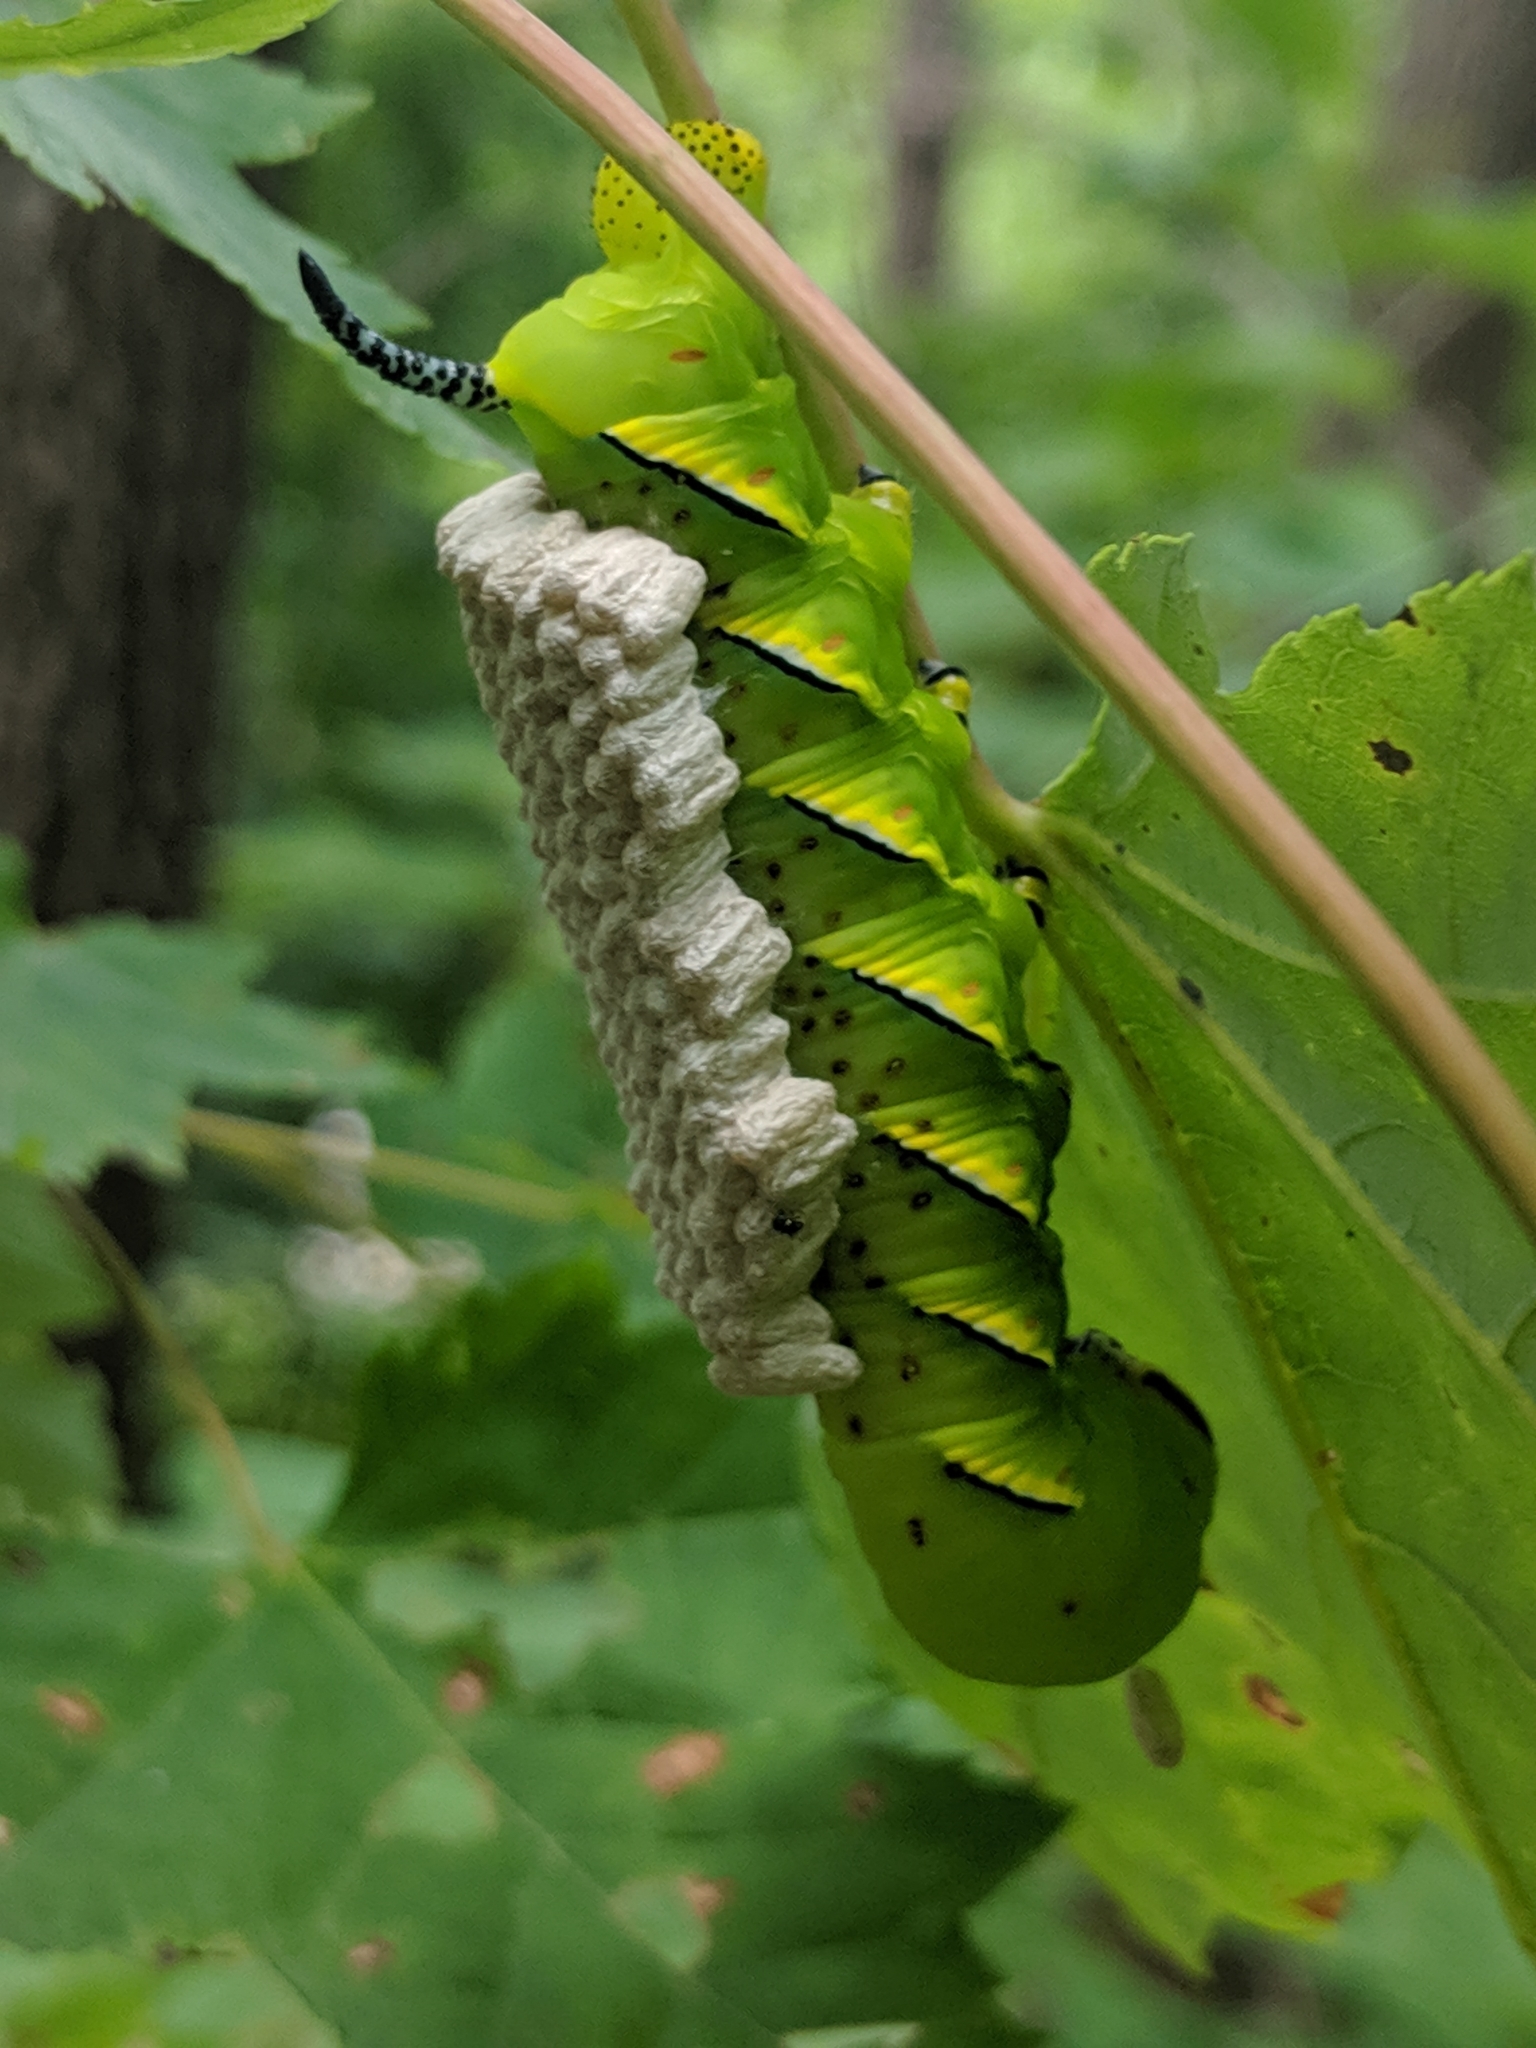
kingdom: Animalia
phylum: Arthropoda
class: Insecta
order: Lepidoptera
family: Sphingidae
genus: Sphinx
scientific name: Sphinx kalmiae
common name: Laurel sphinx
